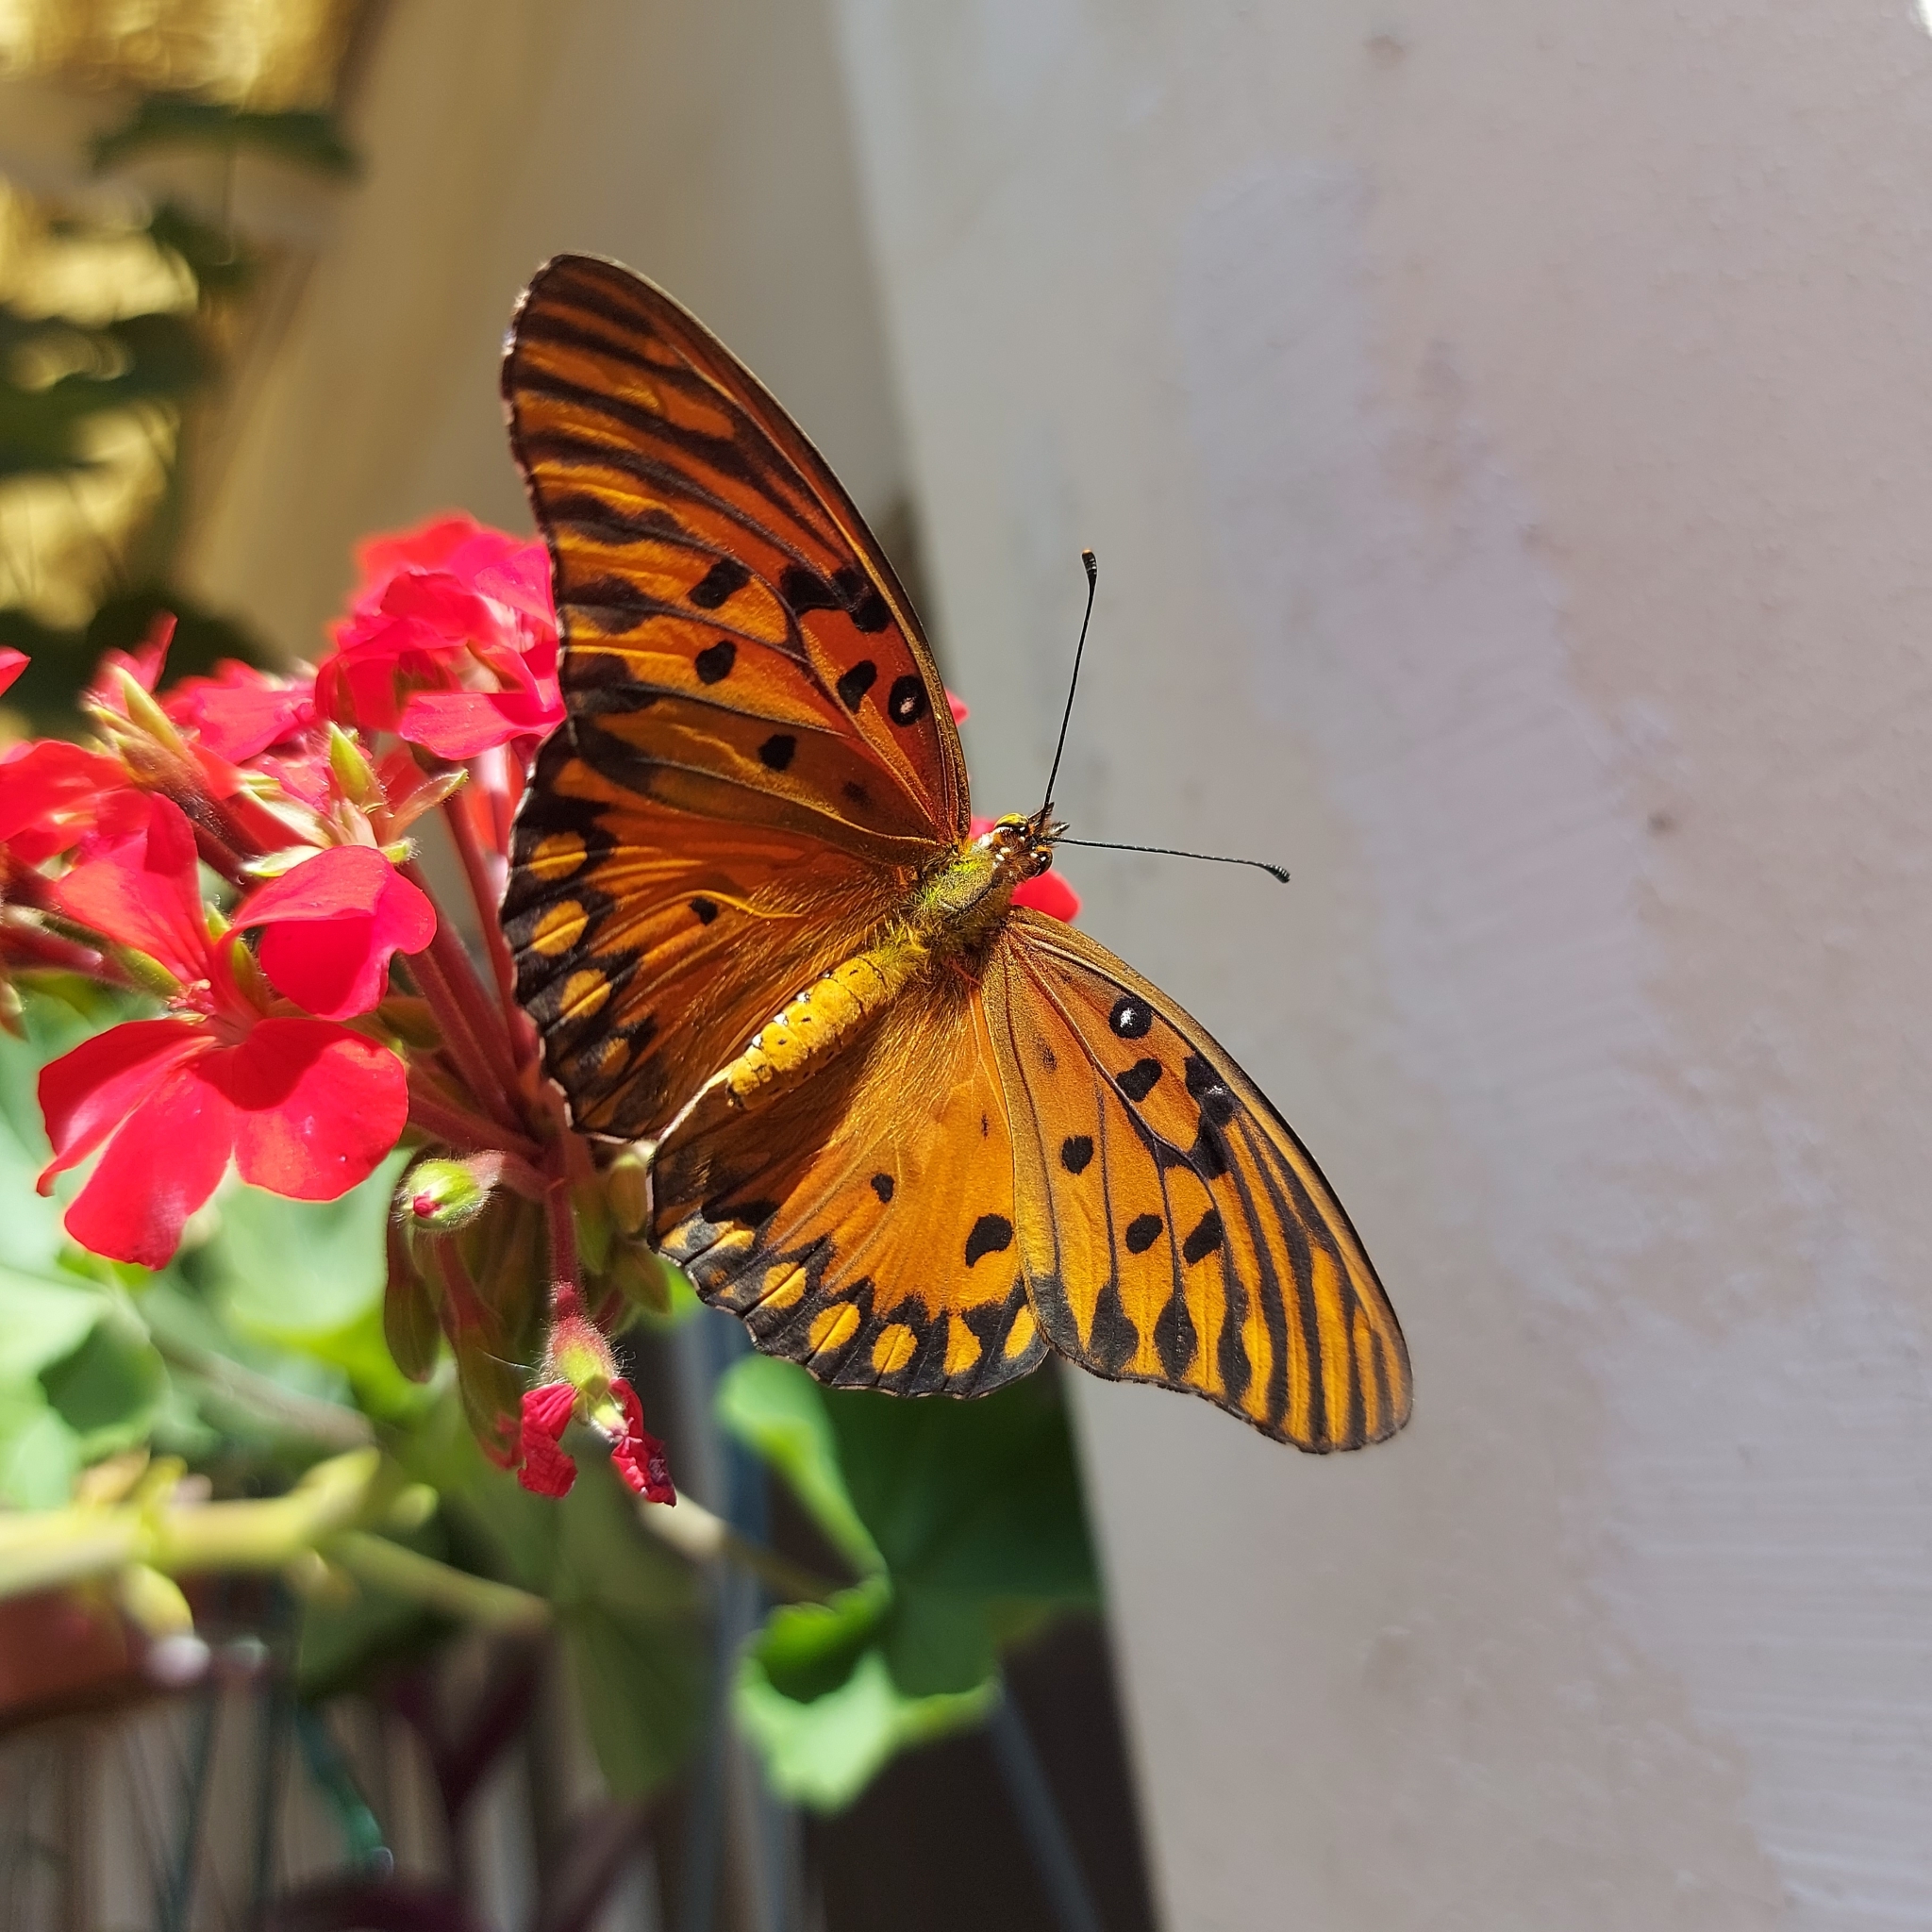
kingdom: Animalia
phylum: Arthropoda
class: Insecta
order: Lepidoptera
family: Nymphalidae
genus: Dione
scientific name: Dione vanillae
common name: Gulf fritillary
